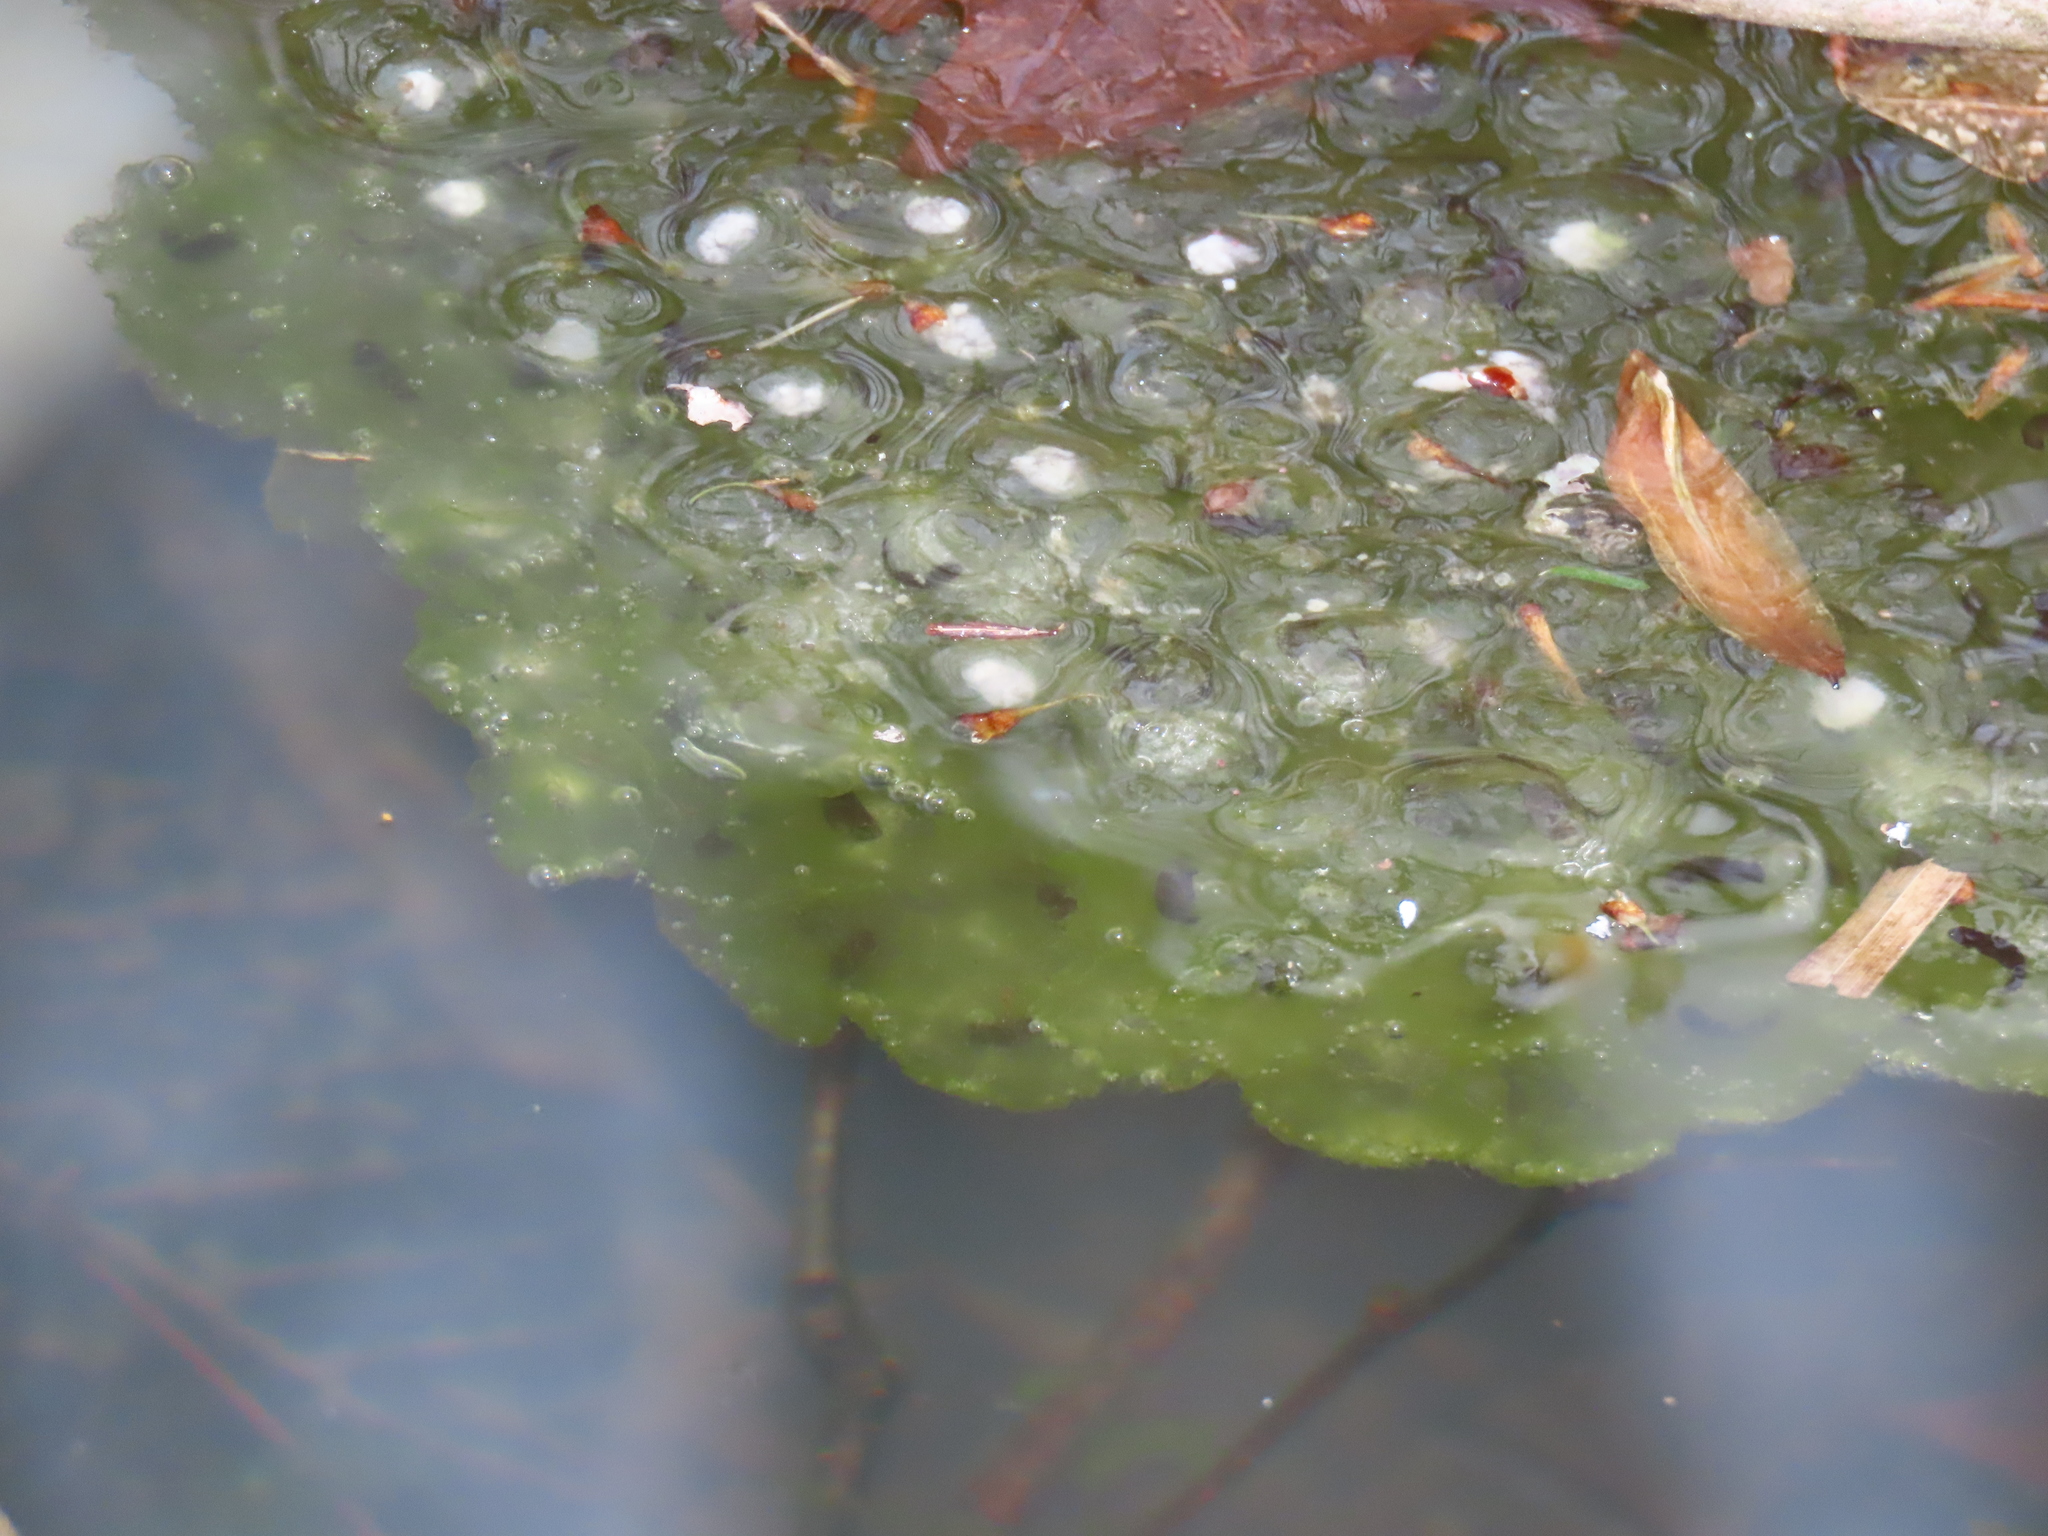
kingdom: Animalia
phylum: Chordata
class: Amphibia
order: Anura
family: Ranidae
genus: Lithobates
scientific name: Lithobates sylvaticus
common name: Wood frog
